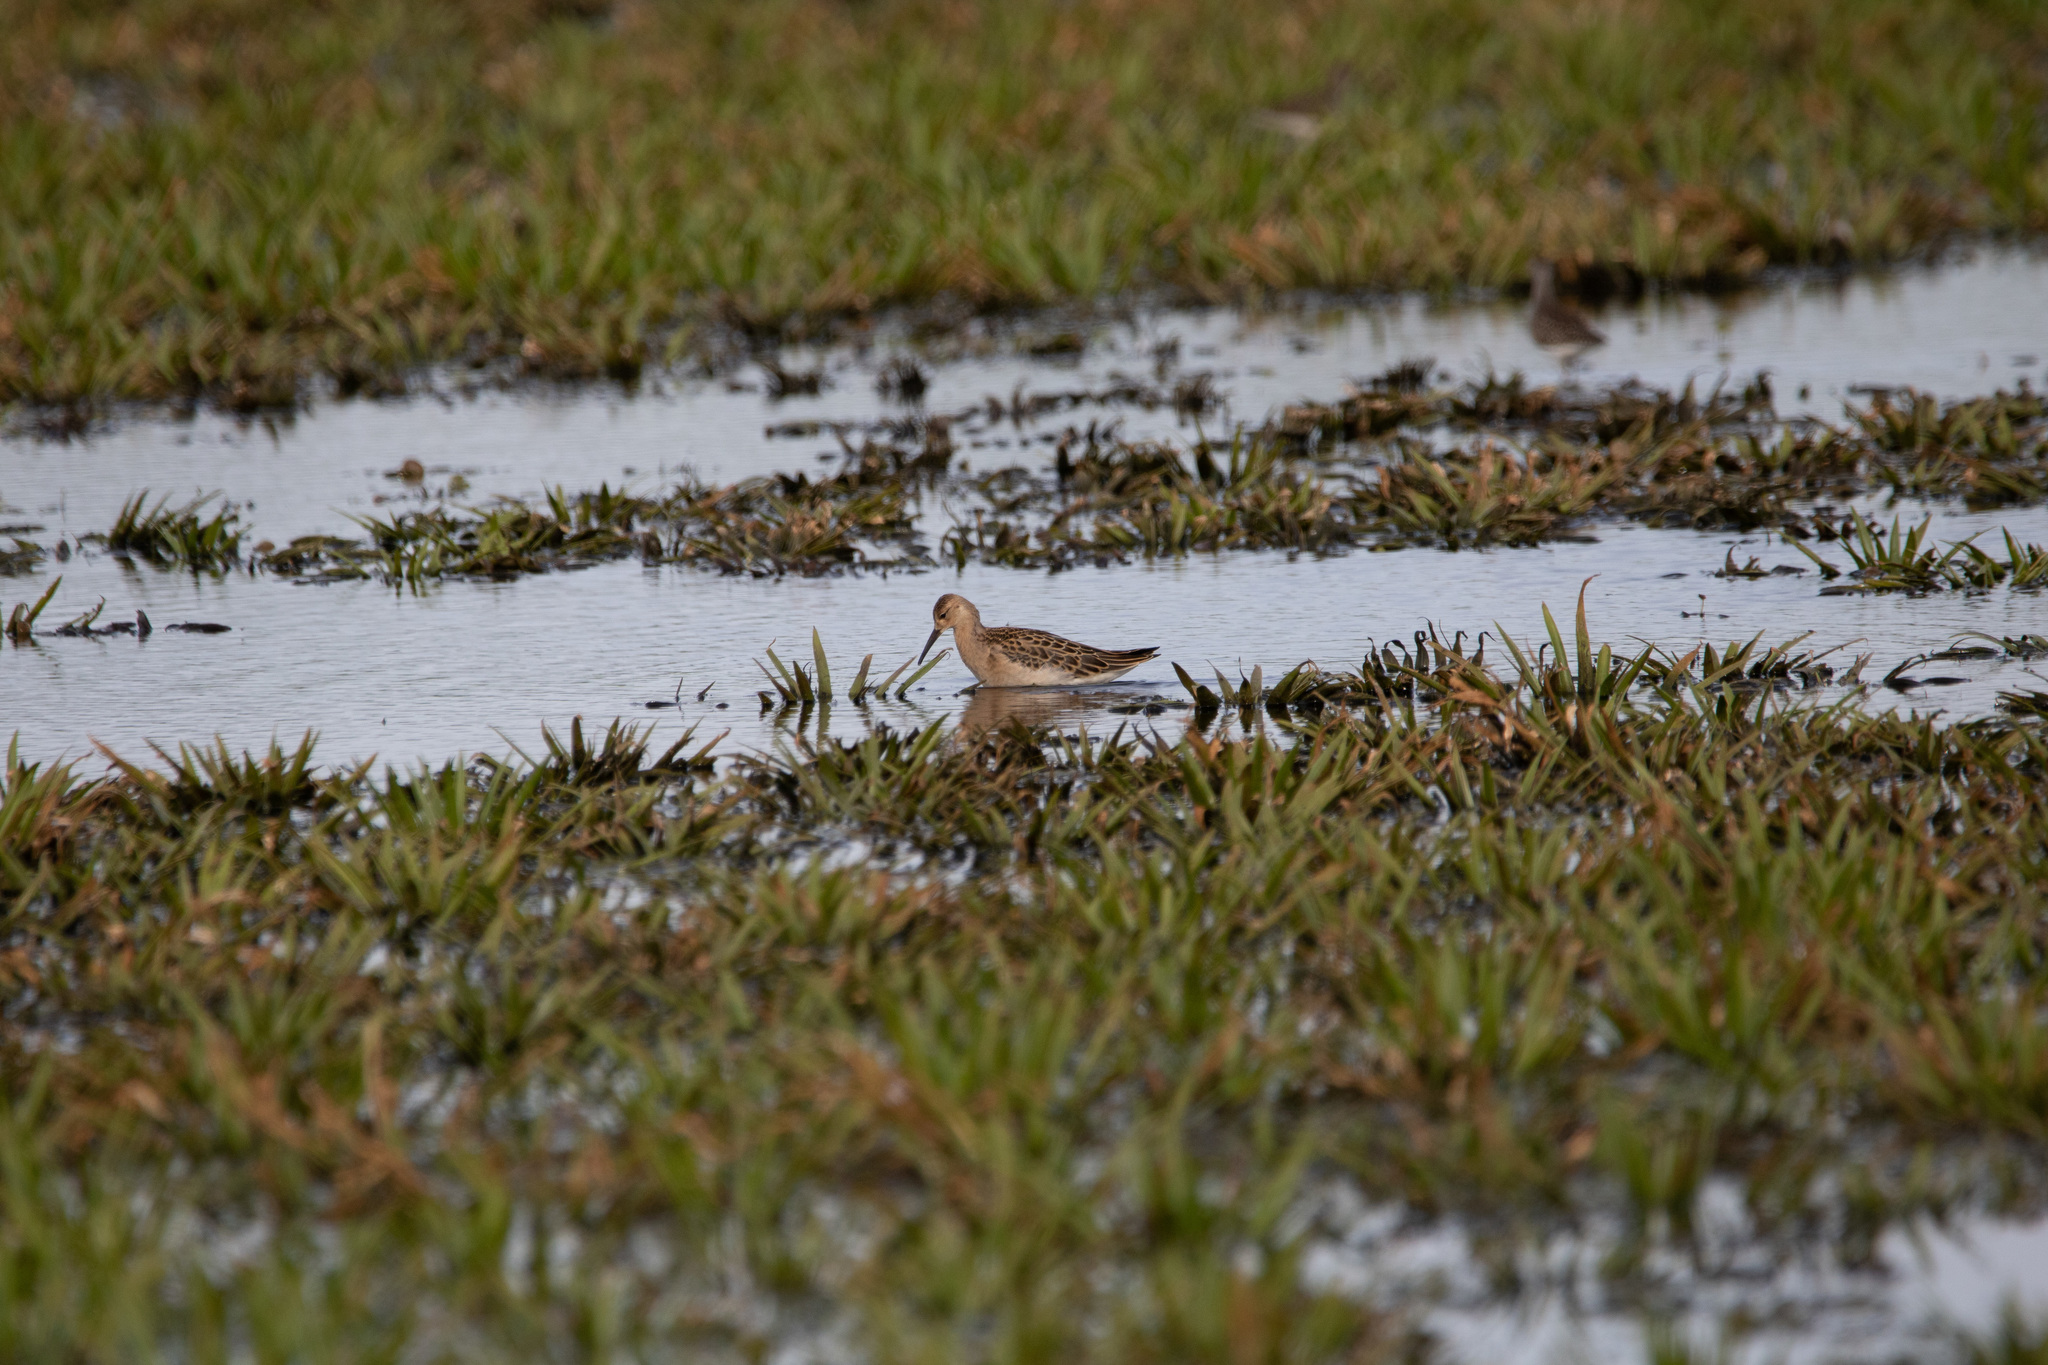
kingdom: Animalia
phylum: Chordata
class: Aves
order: Charadriiformes
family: Scolopacidae
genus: Calidris
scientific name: Calidris pugnax
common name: Ruff
